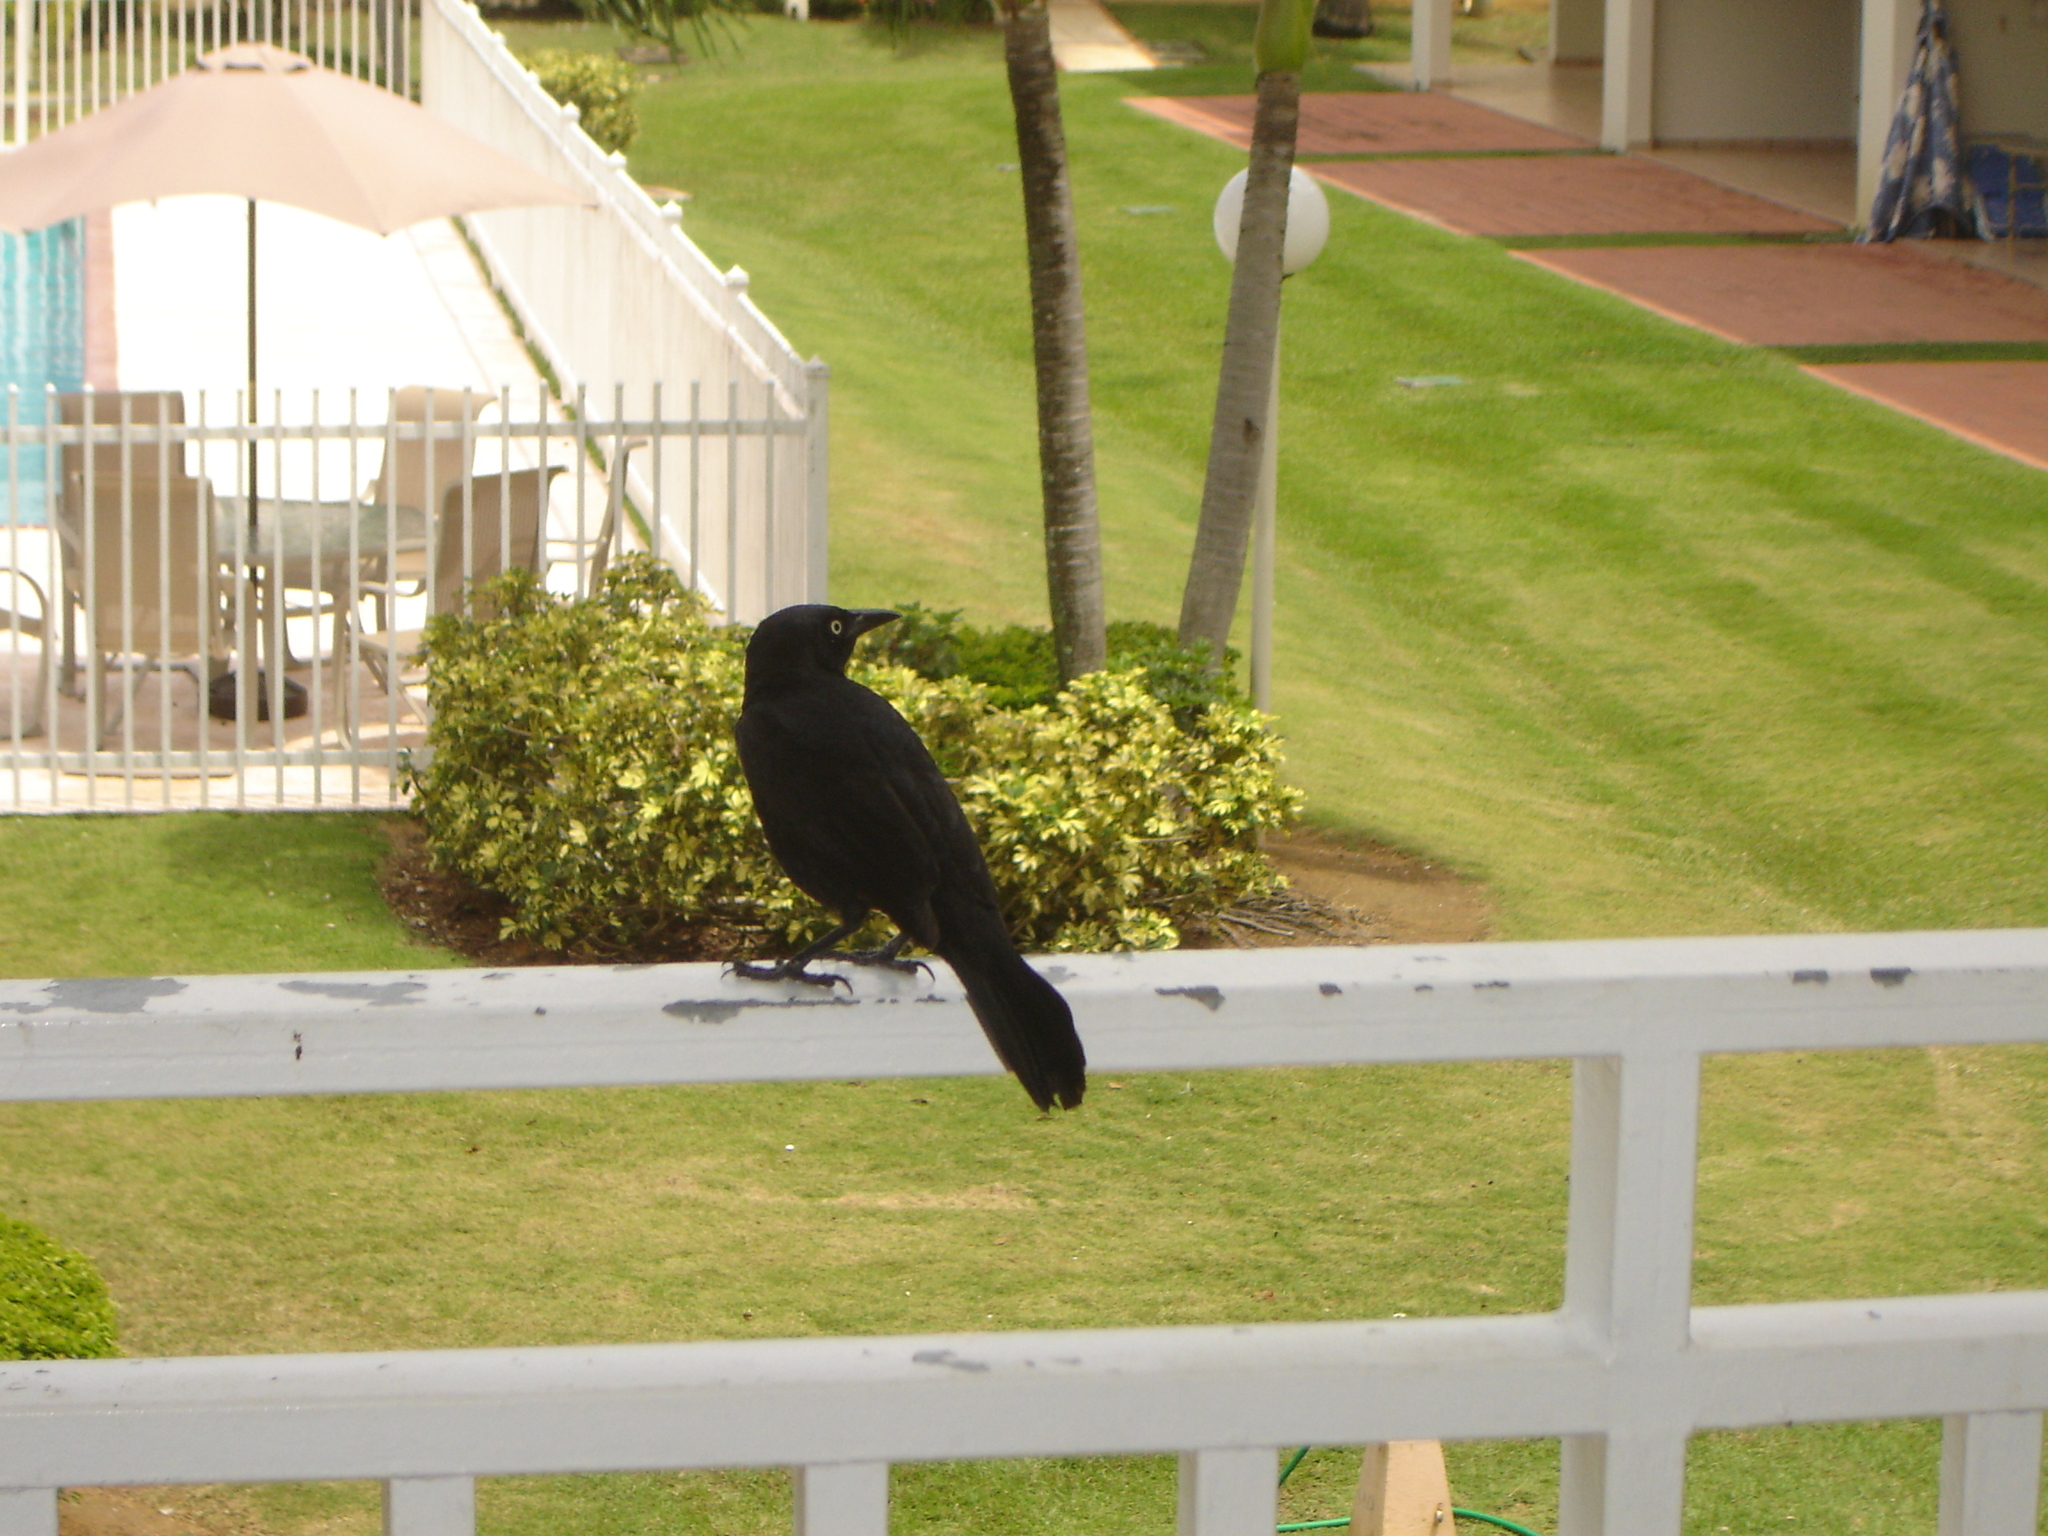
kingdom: Animalia
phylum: Chordata
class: Aves
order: Passeriformes
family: Icteridae
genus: Quiscalus
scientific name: Quiscalus niger
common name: Greater antillean grackle
